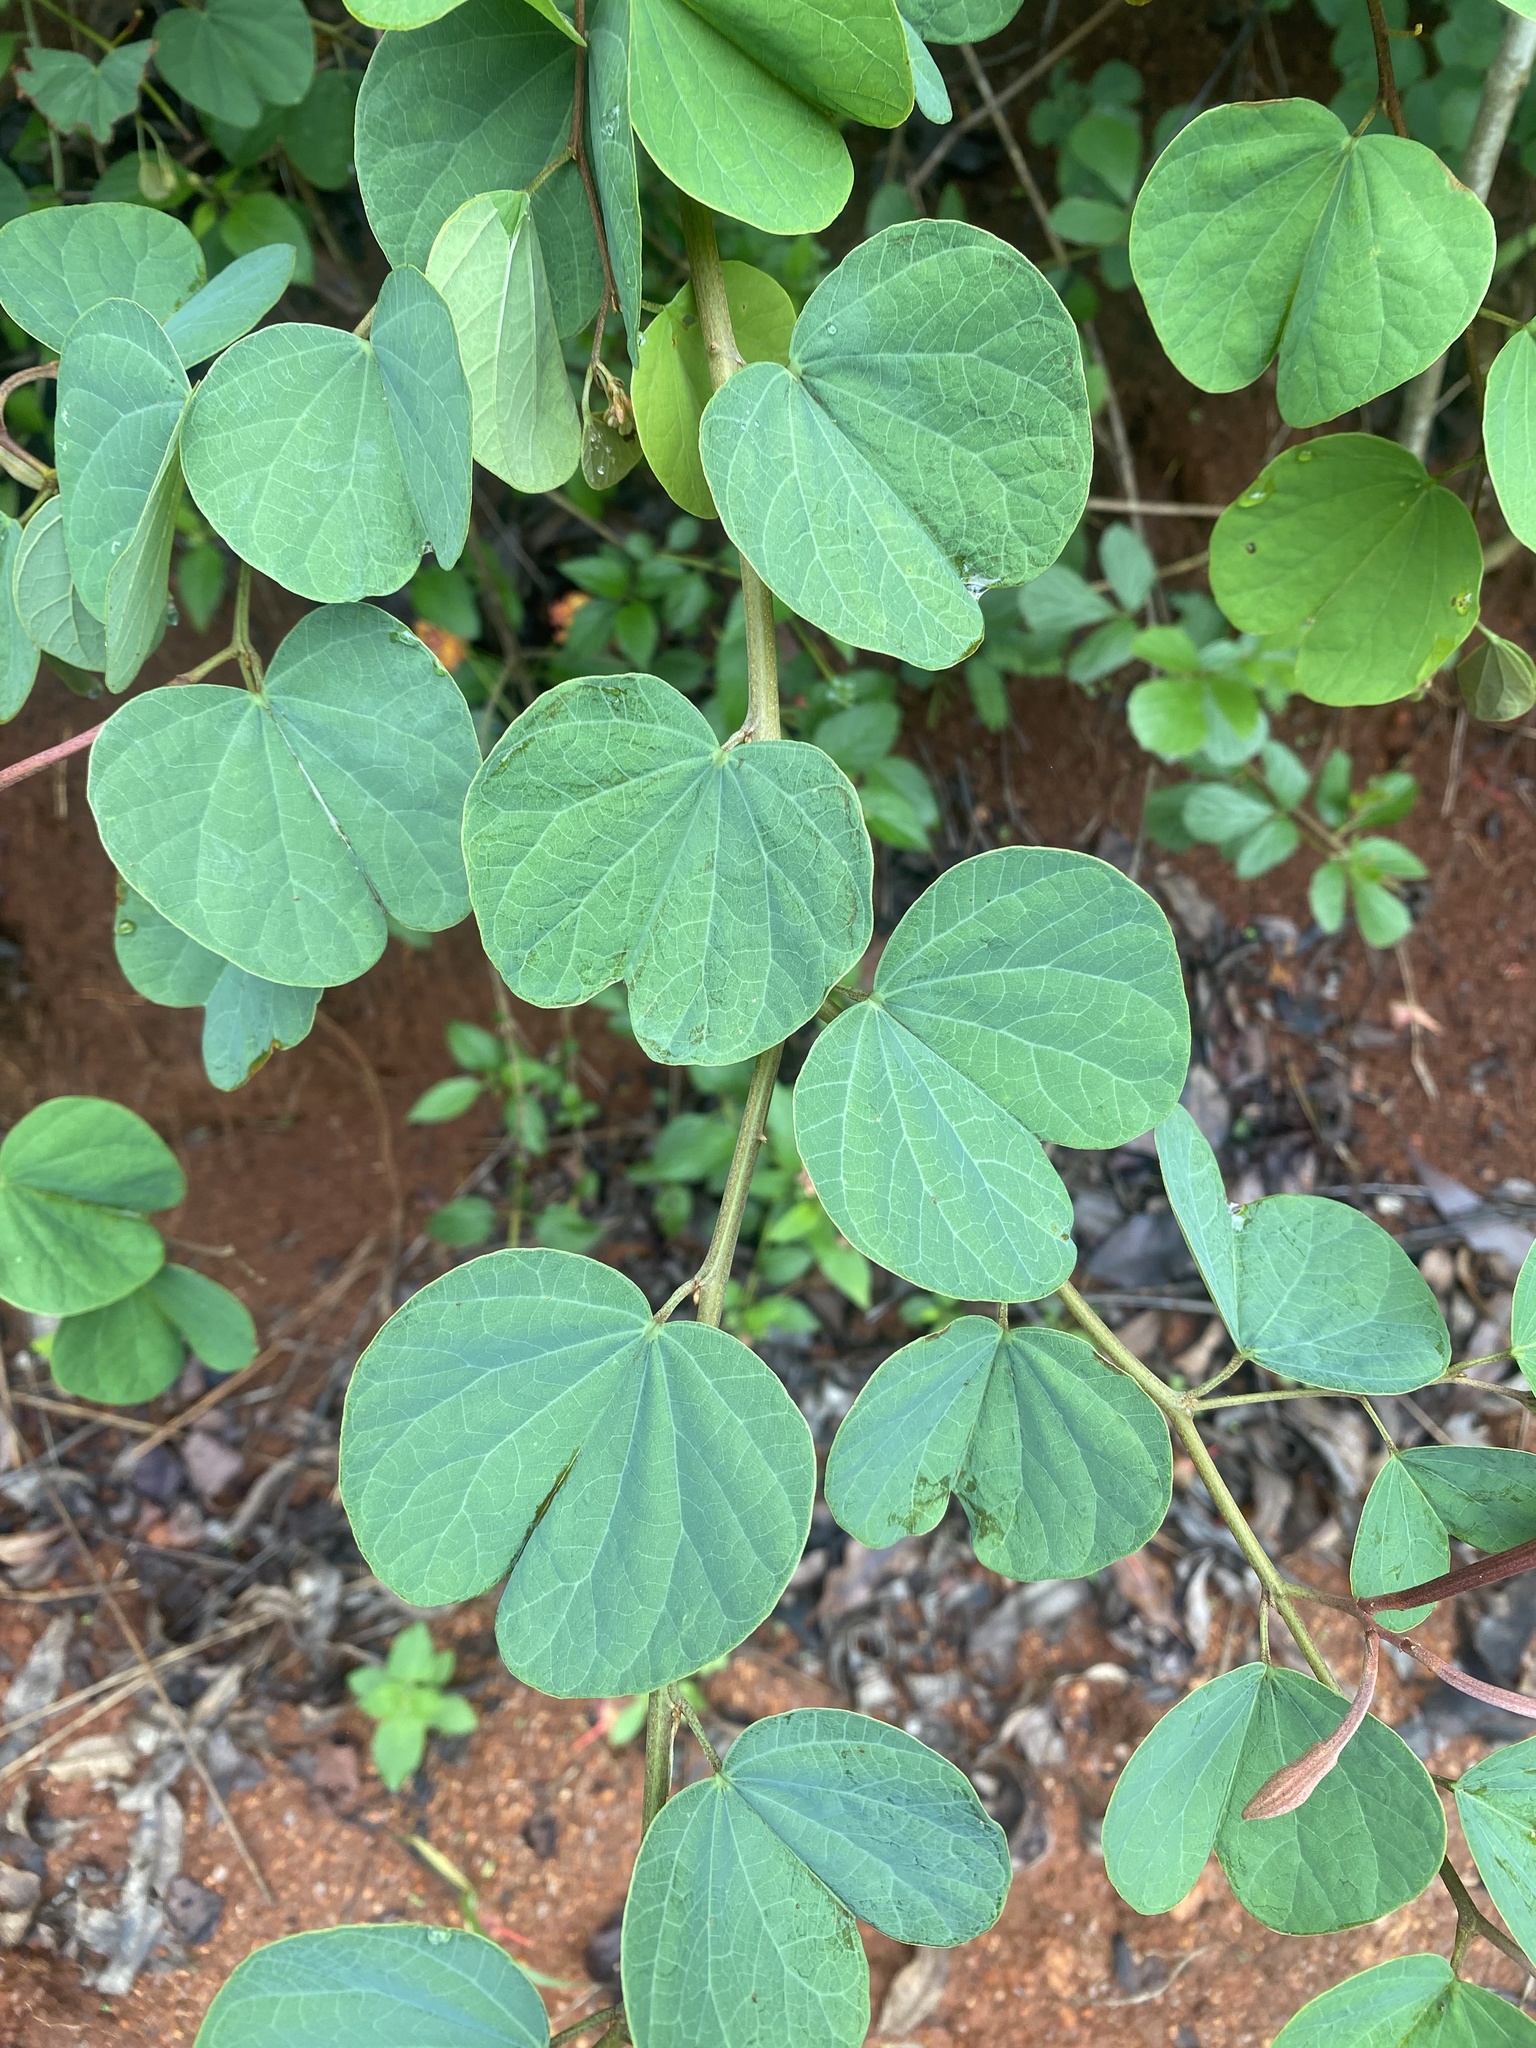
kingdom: Plantae
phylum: Tracheophyta
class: Magnoliopsida
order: Fabales
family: Fabaceae
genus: Bauhinia
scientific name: Bauhinia galpinii
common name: African plume
